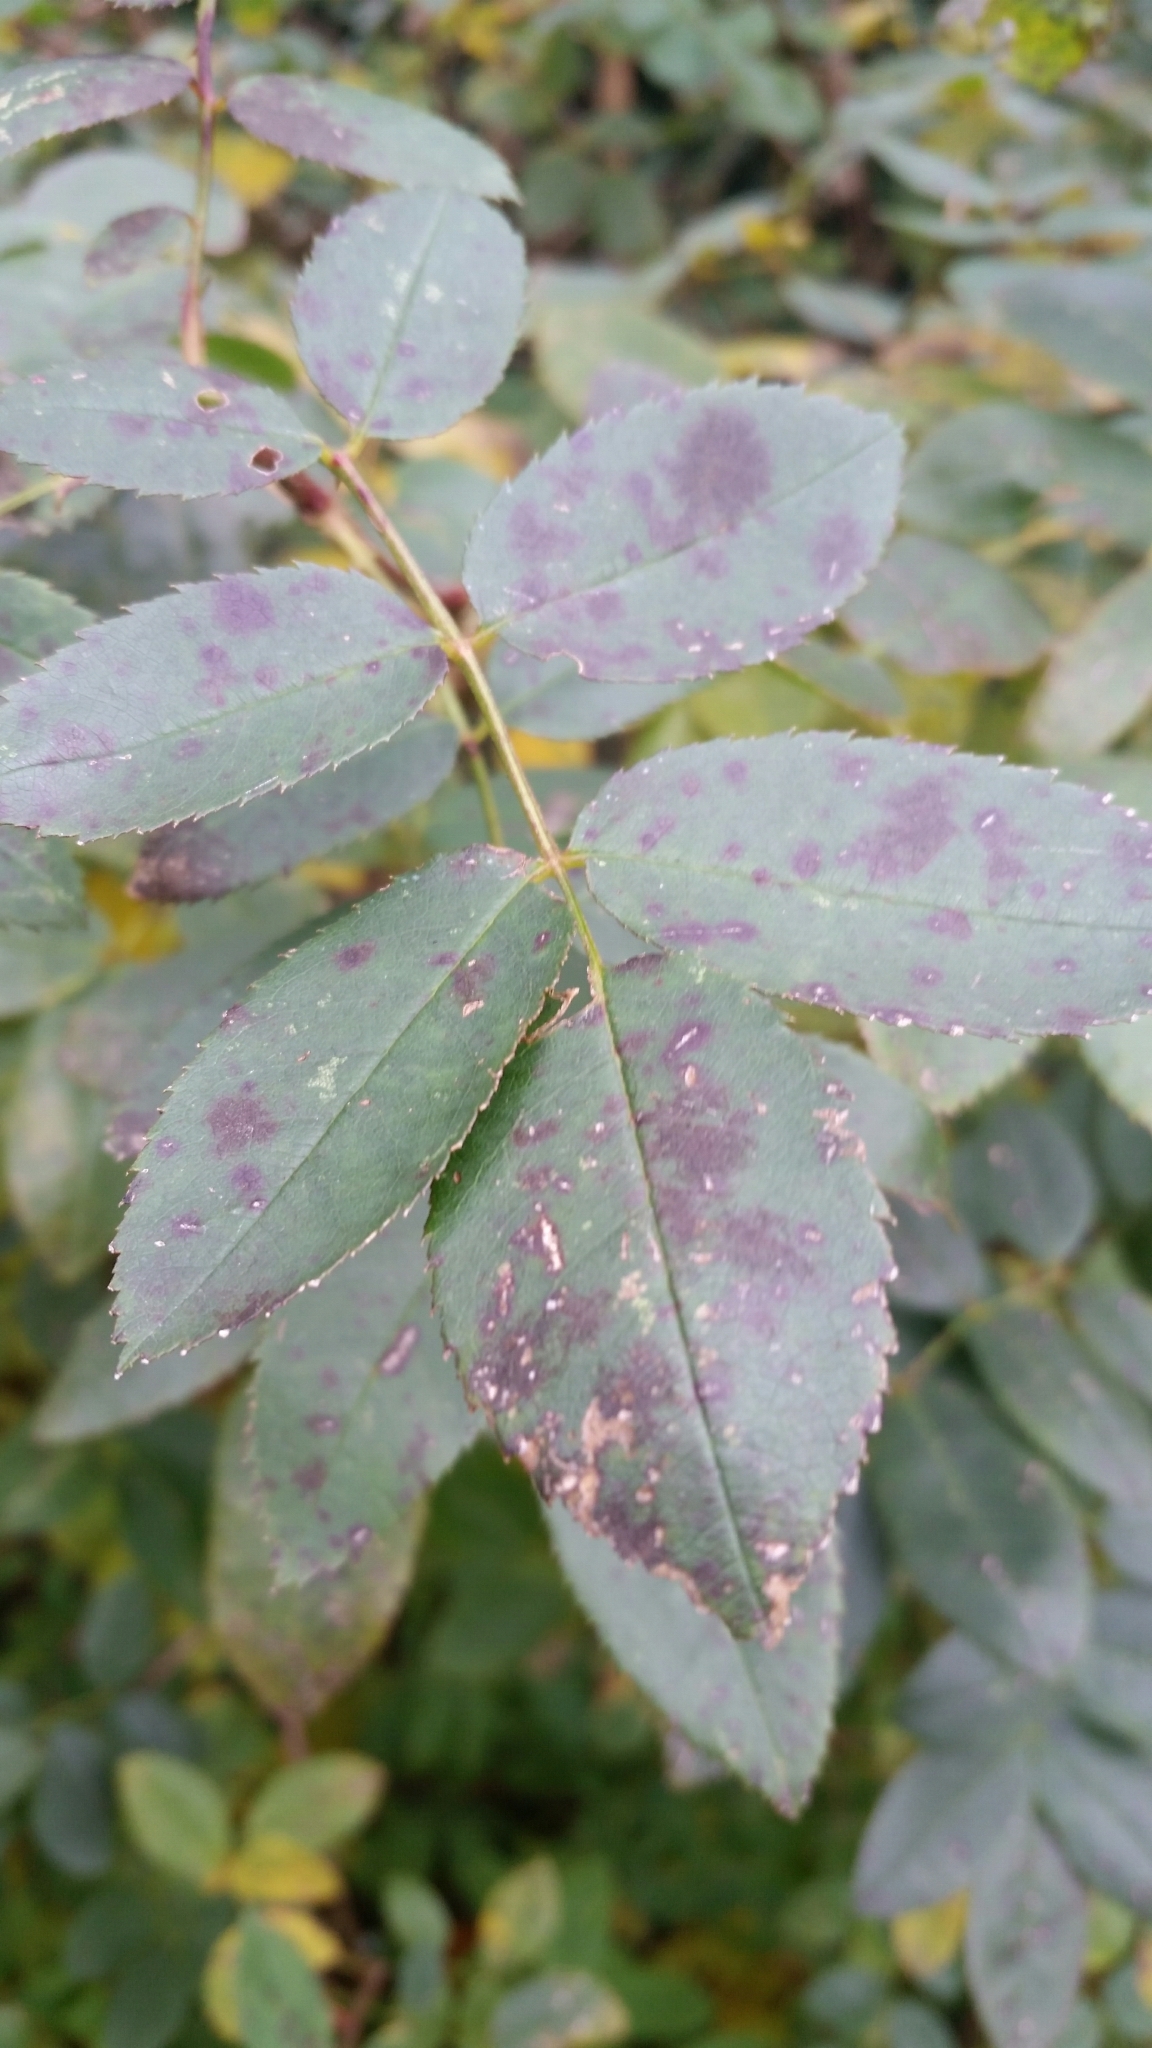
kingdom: Fungi
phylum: Ascomycota
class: Leotiomycetes
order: Helotiales
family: Drepanopezizaceae
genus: Diplocarpon
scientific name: Diplocarpon rosae
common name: Rose black-spot
